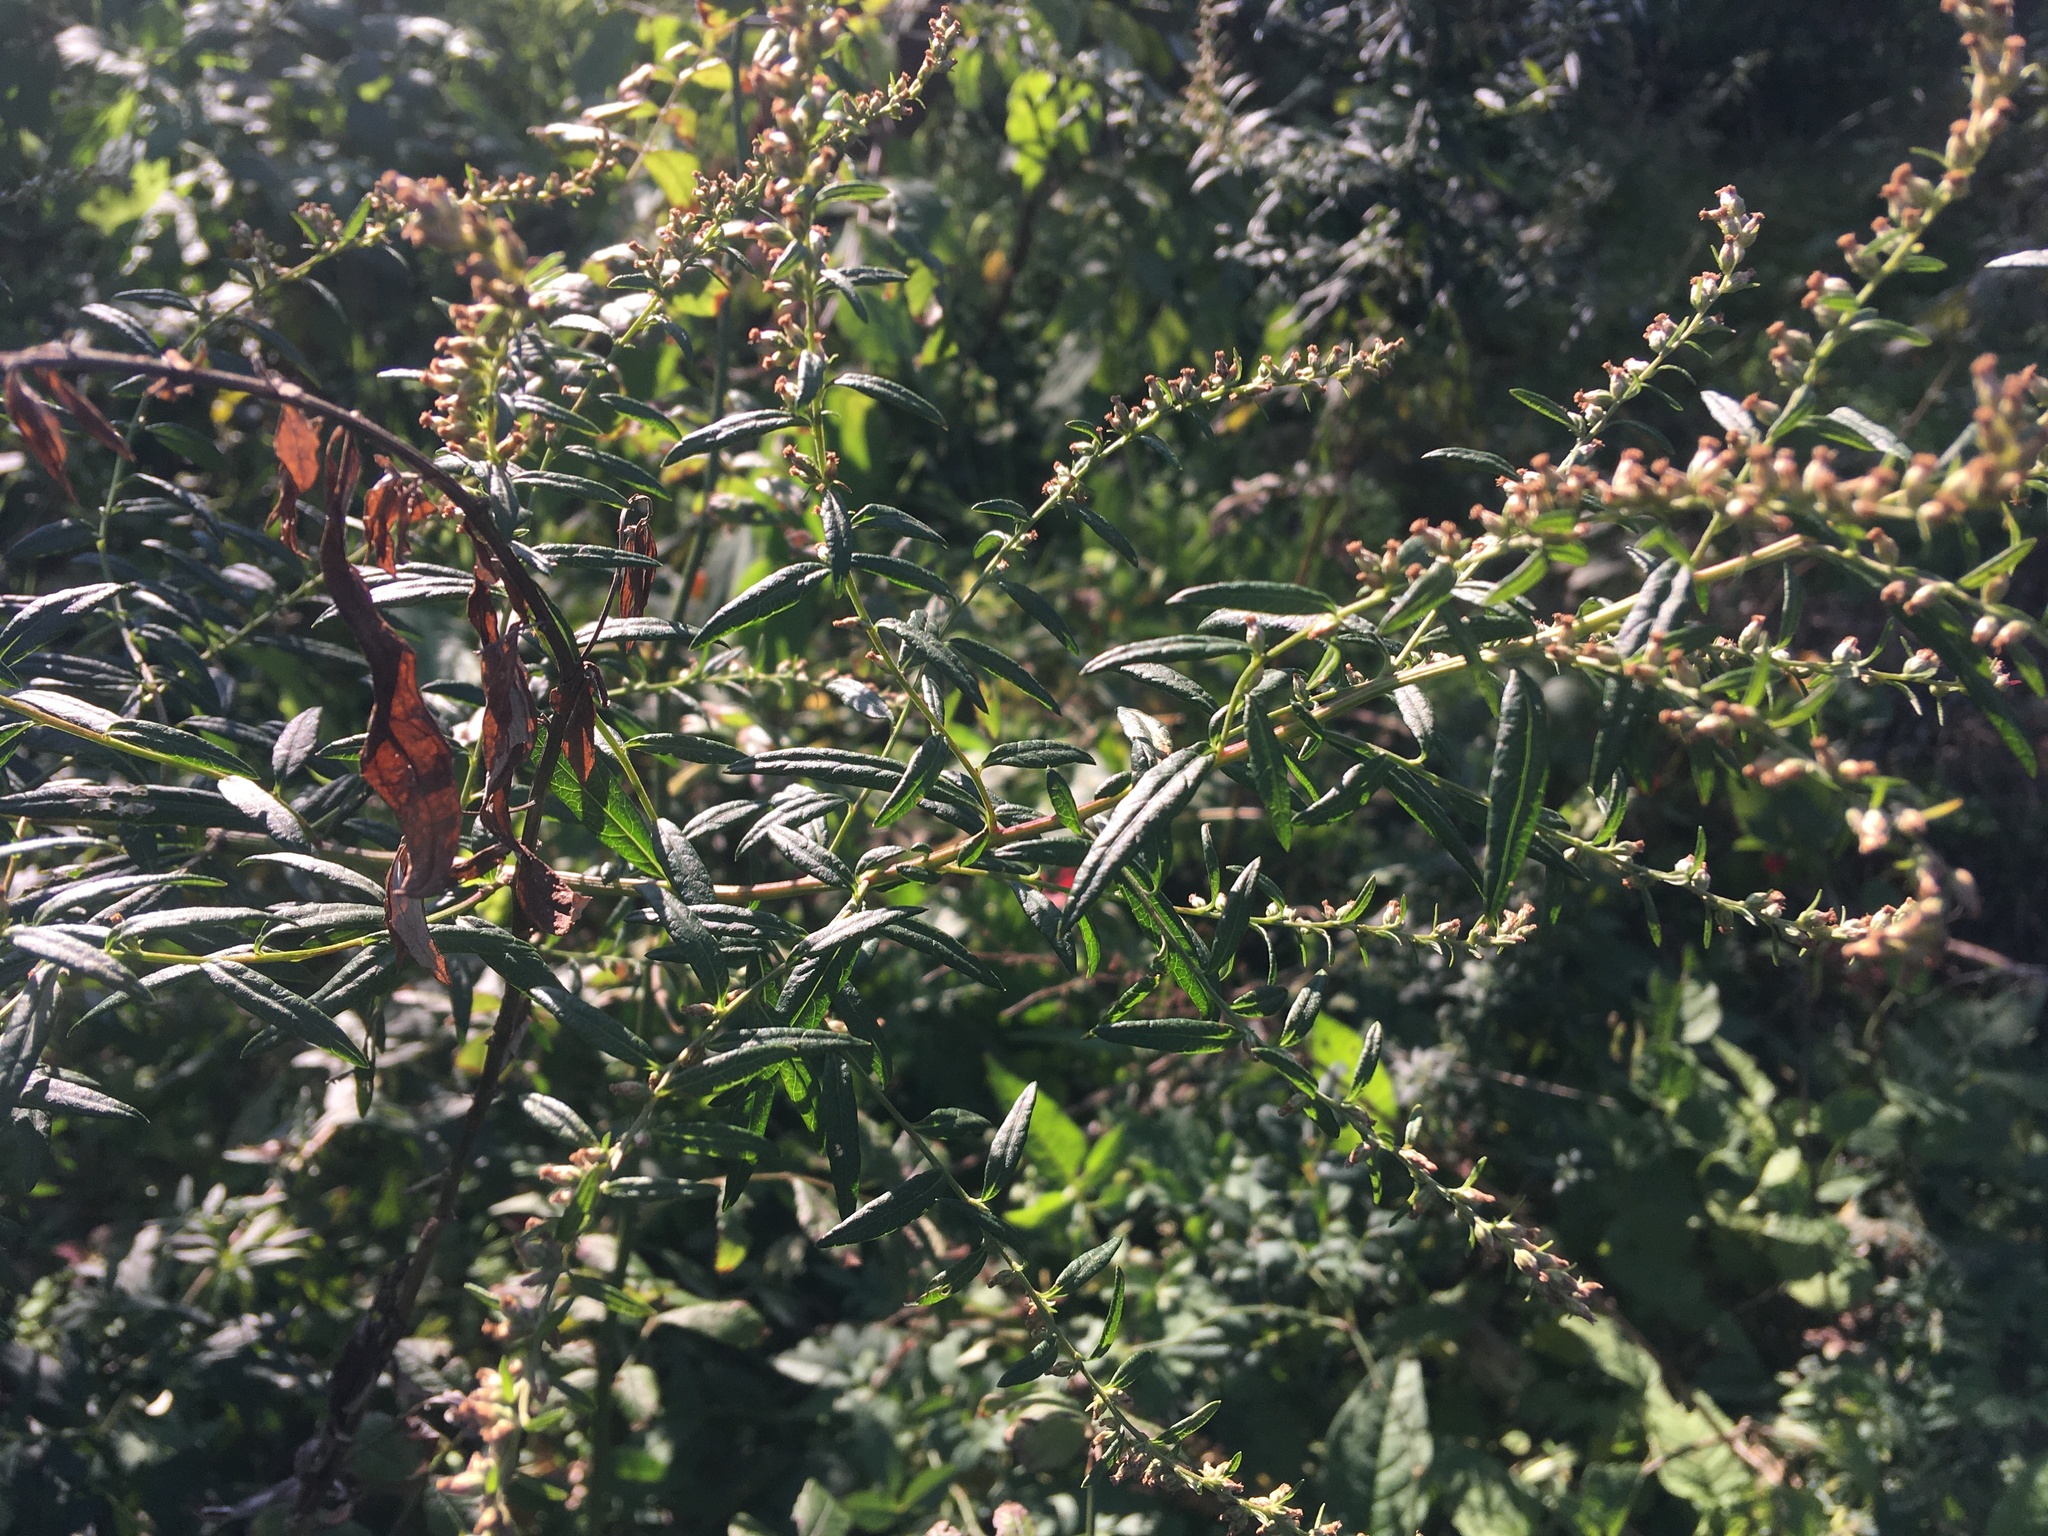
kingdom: Plantae
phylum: Tracheophyta
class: Magnoliopsida
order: Asterales
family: Asteraceae
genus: Artemisia
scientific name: Artemisia vulgaris
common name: Mugwort
